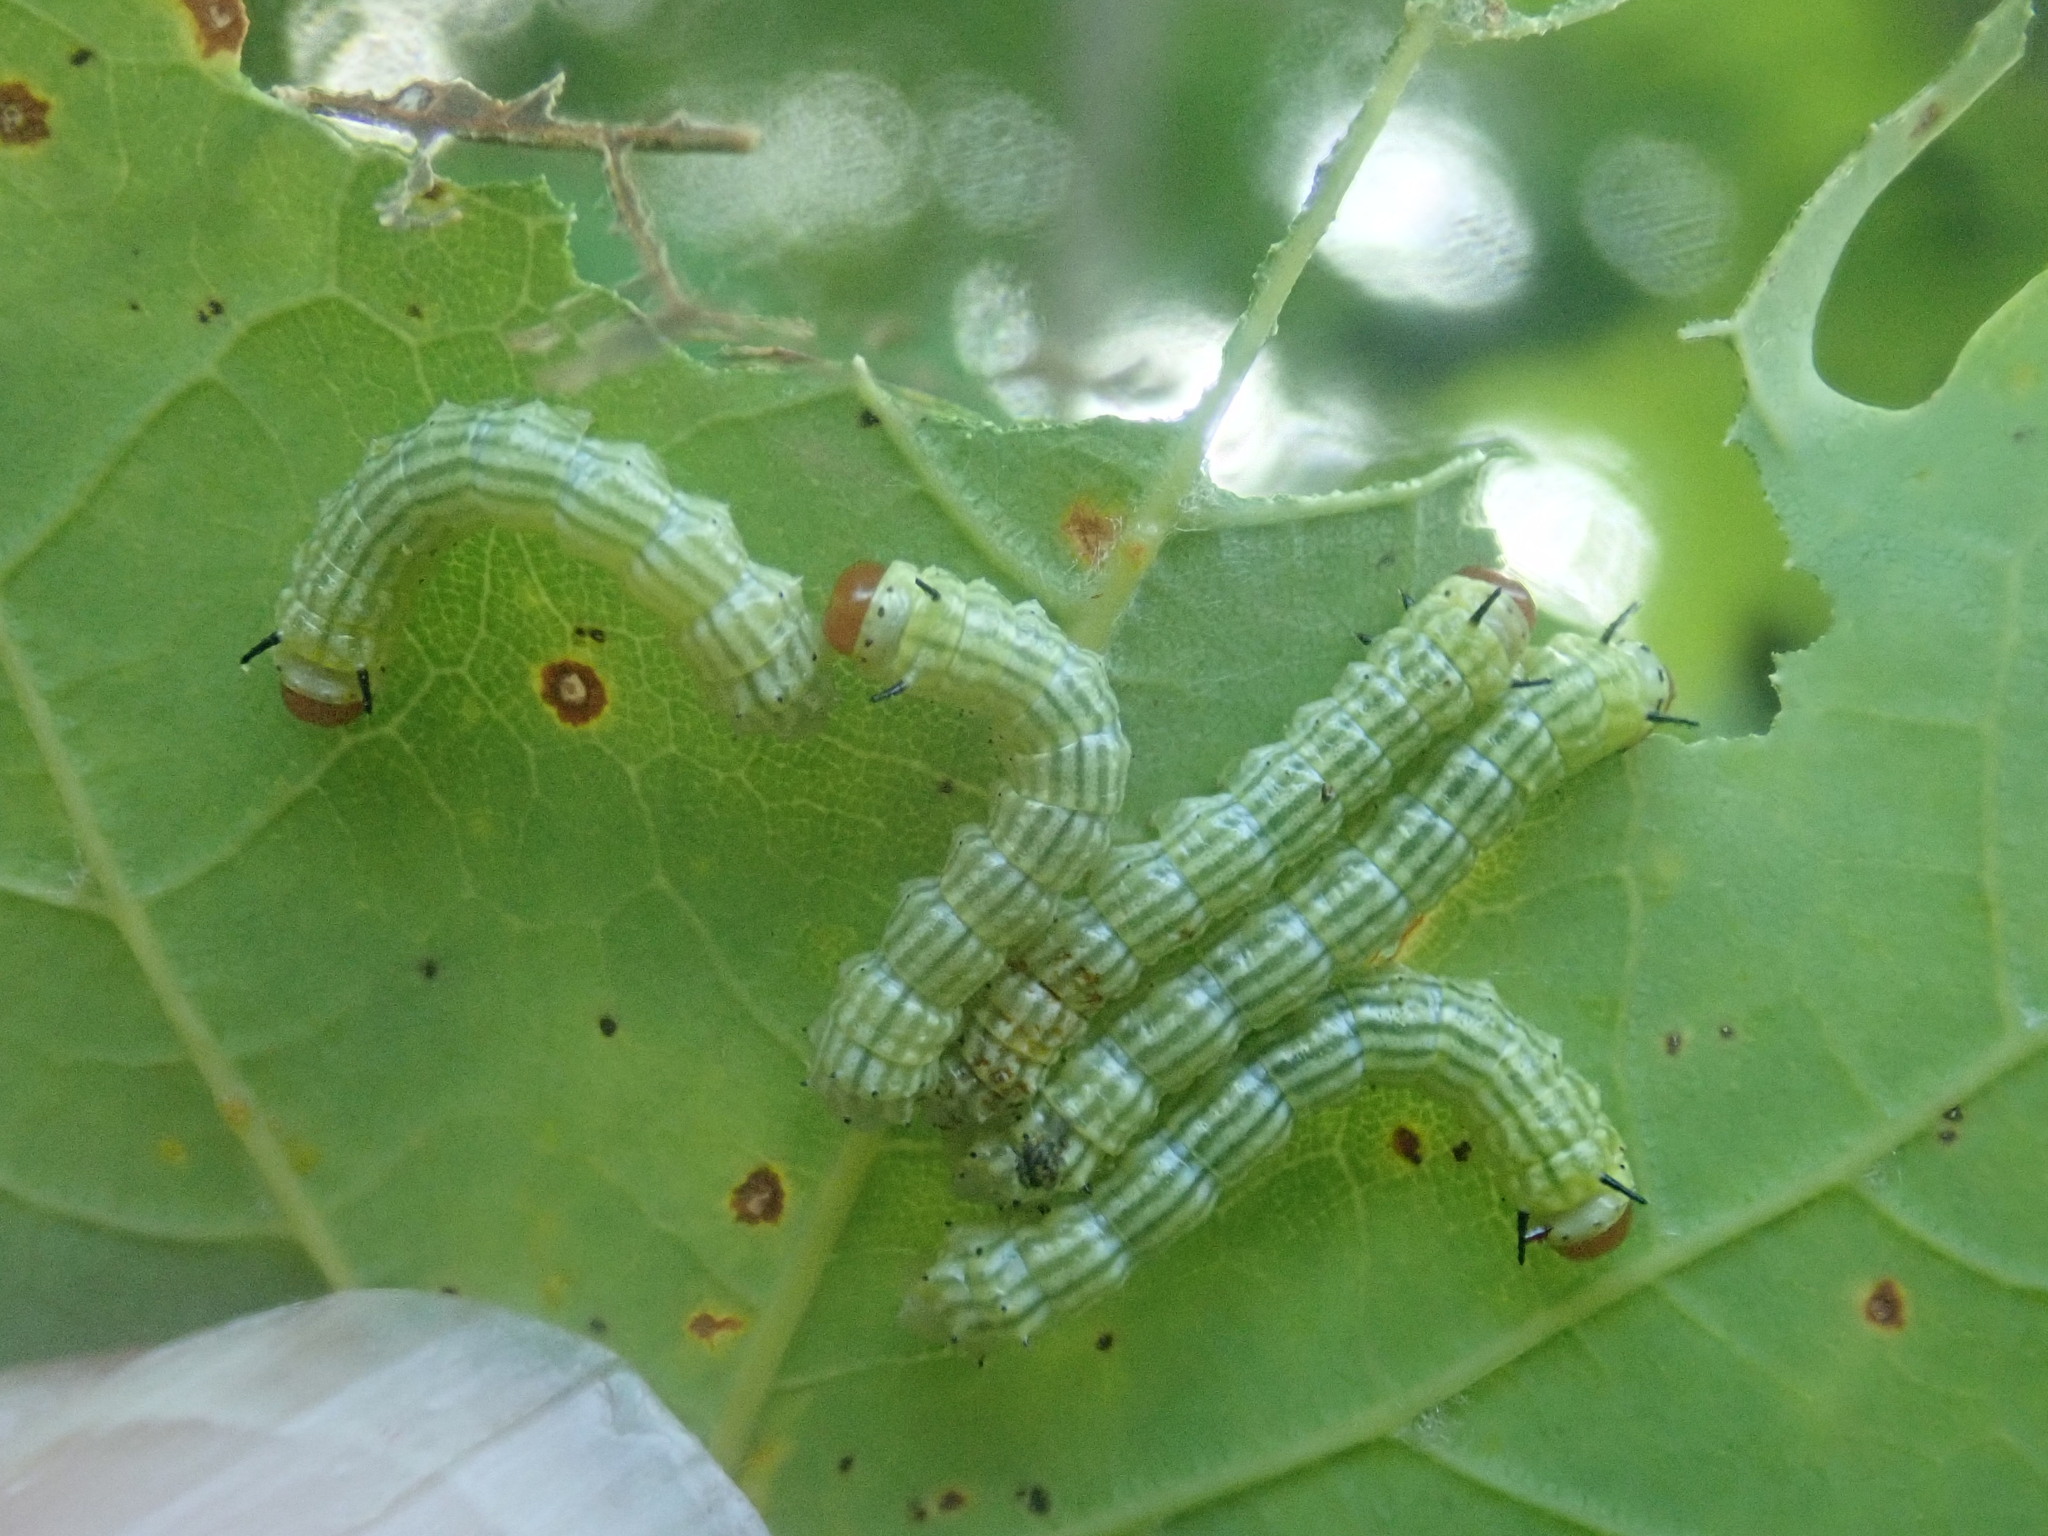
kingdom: Animalia
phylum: Arthropoda
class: Insecta
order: Lepidoptera
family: Saturniidae
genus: Dryocampa
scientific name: Dryocampa rubicunda
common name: Rosy maple moth
